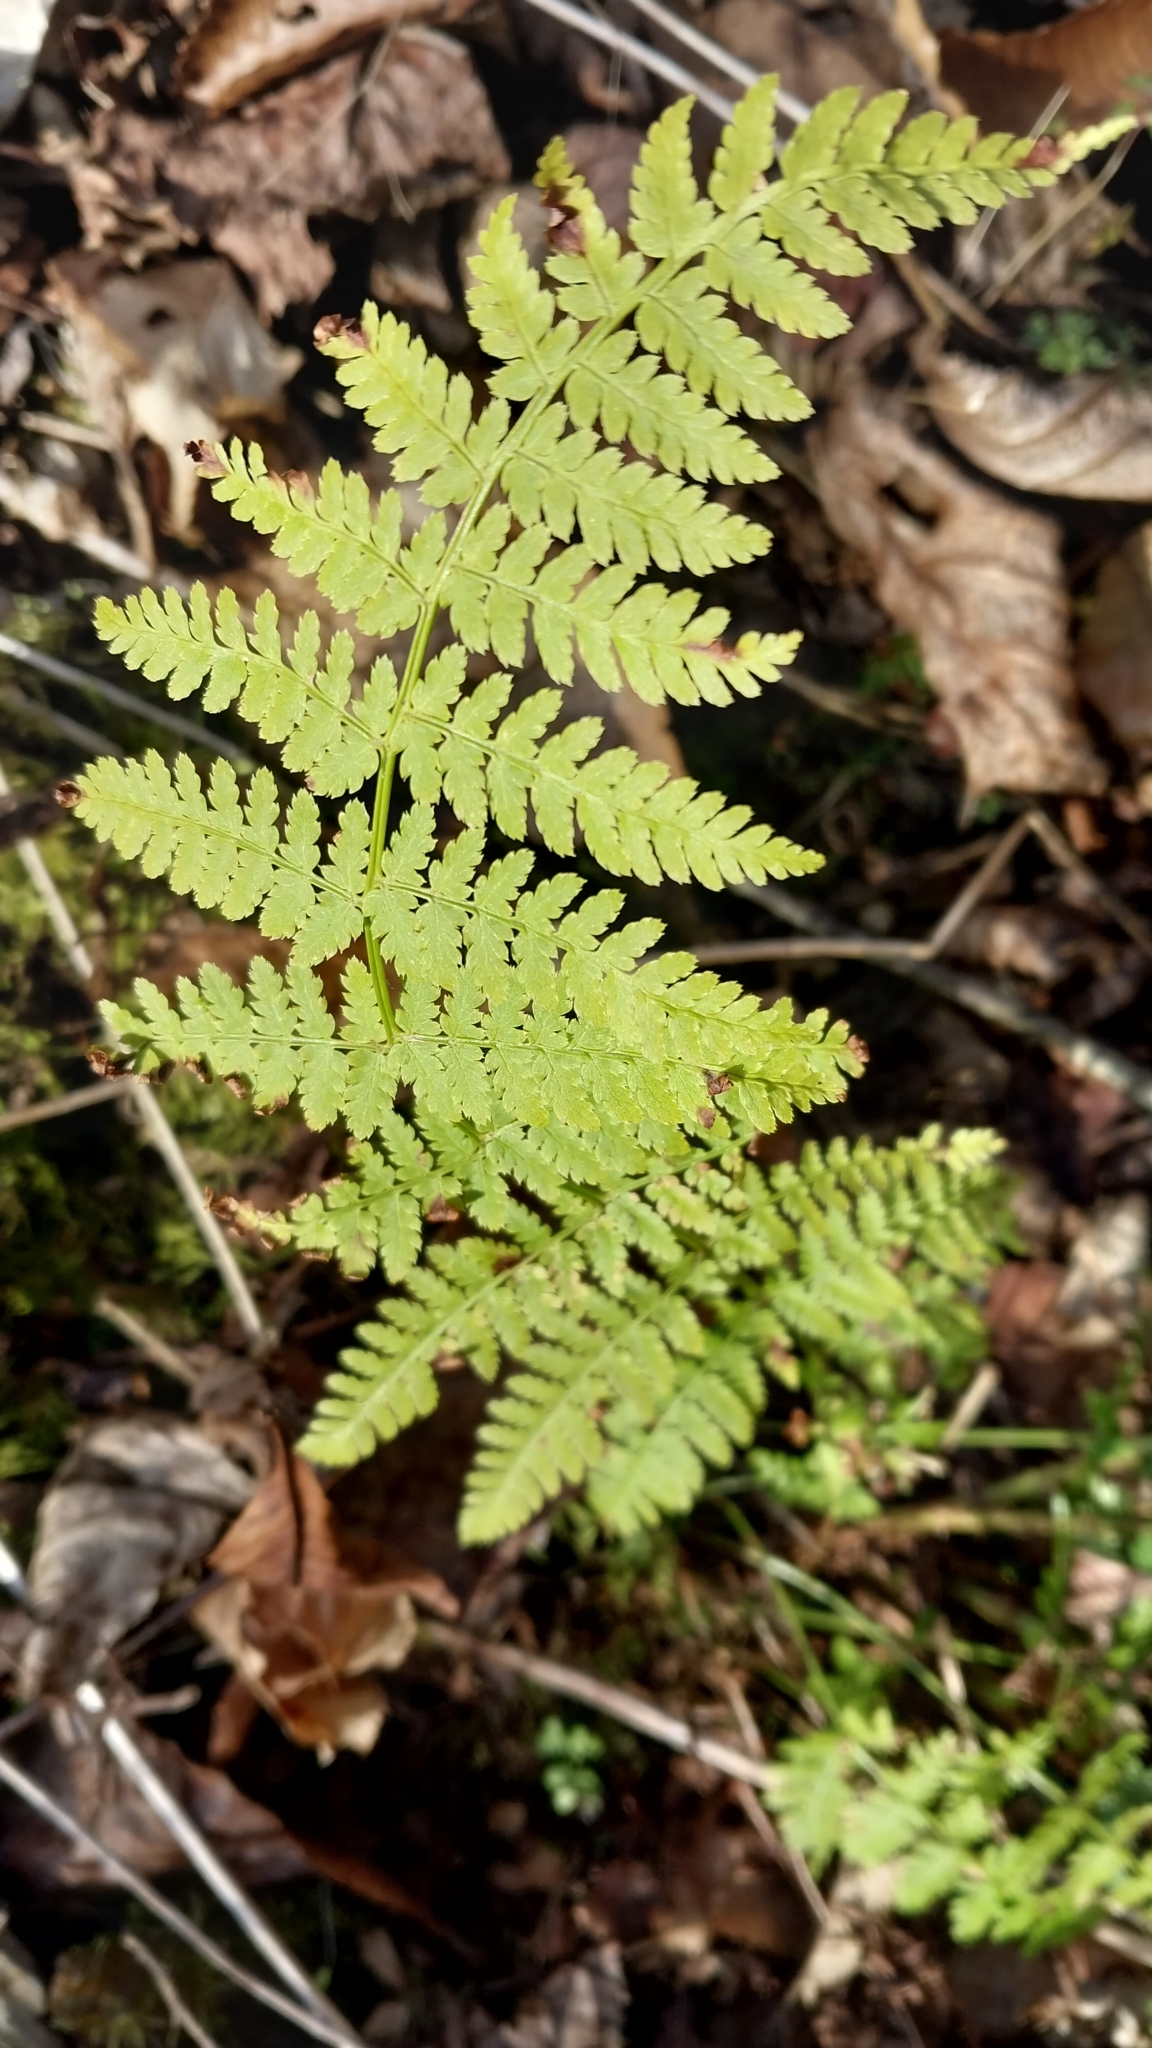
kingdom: Plantae
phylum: Tracheophyta
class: Polypodiopsida
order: Polypodiales
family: Dryopteridaceae
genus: Dryopteris
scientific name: Dryopteris intermedia
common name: Evergreen wood fern
